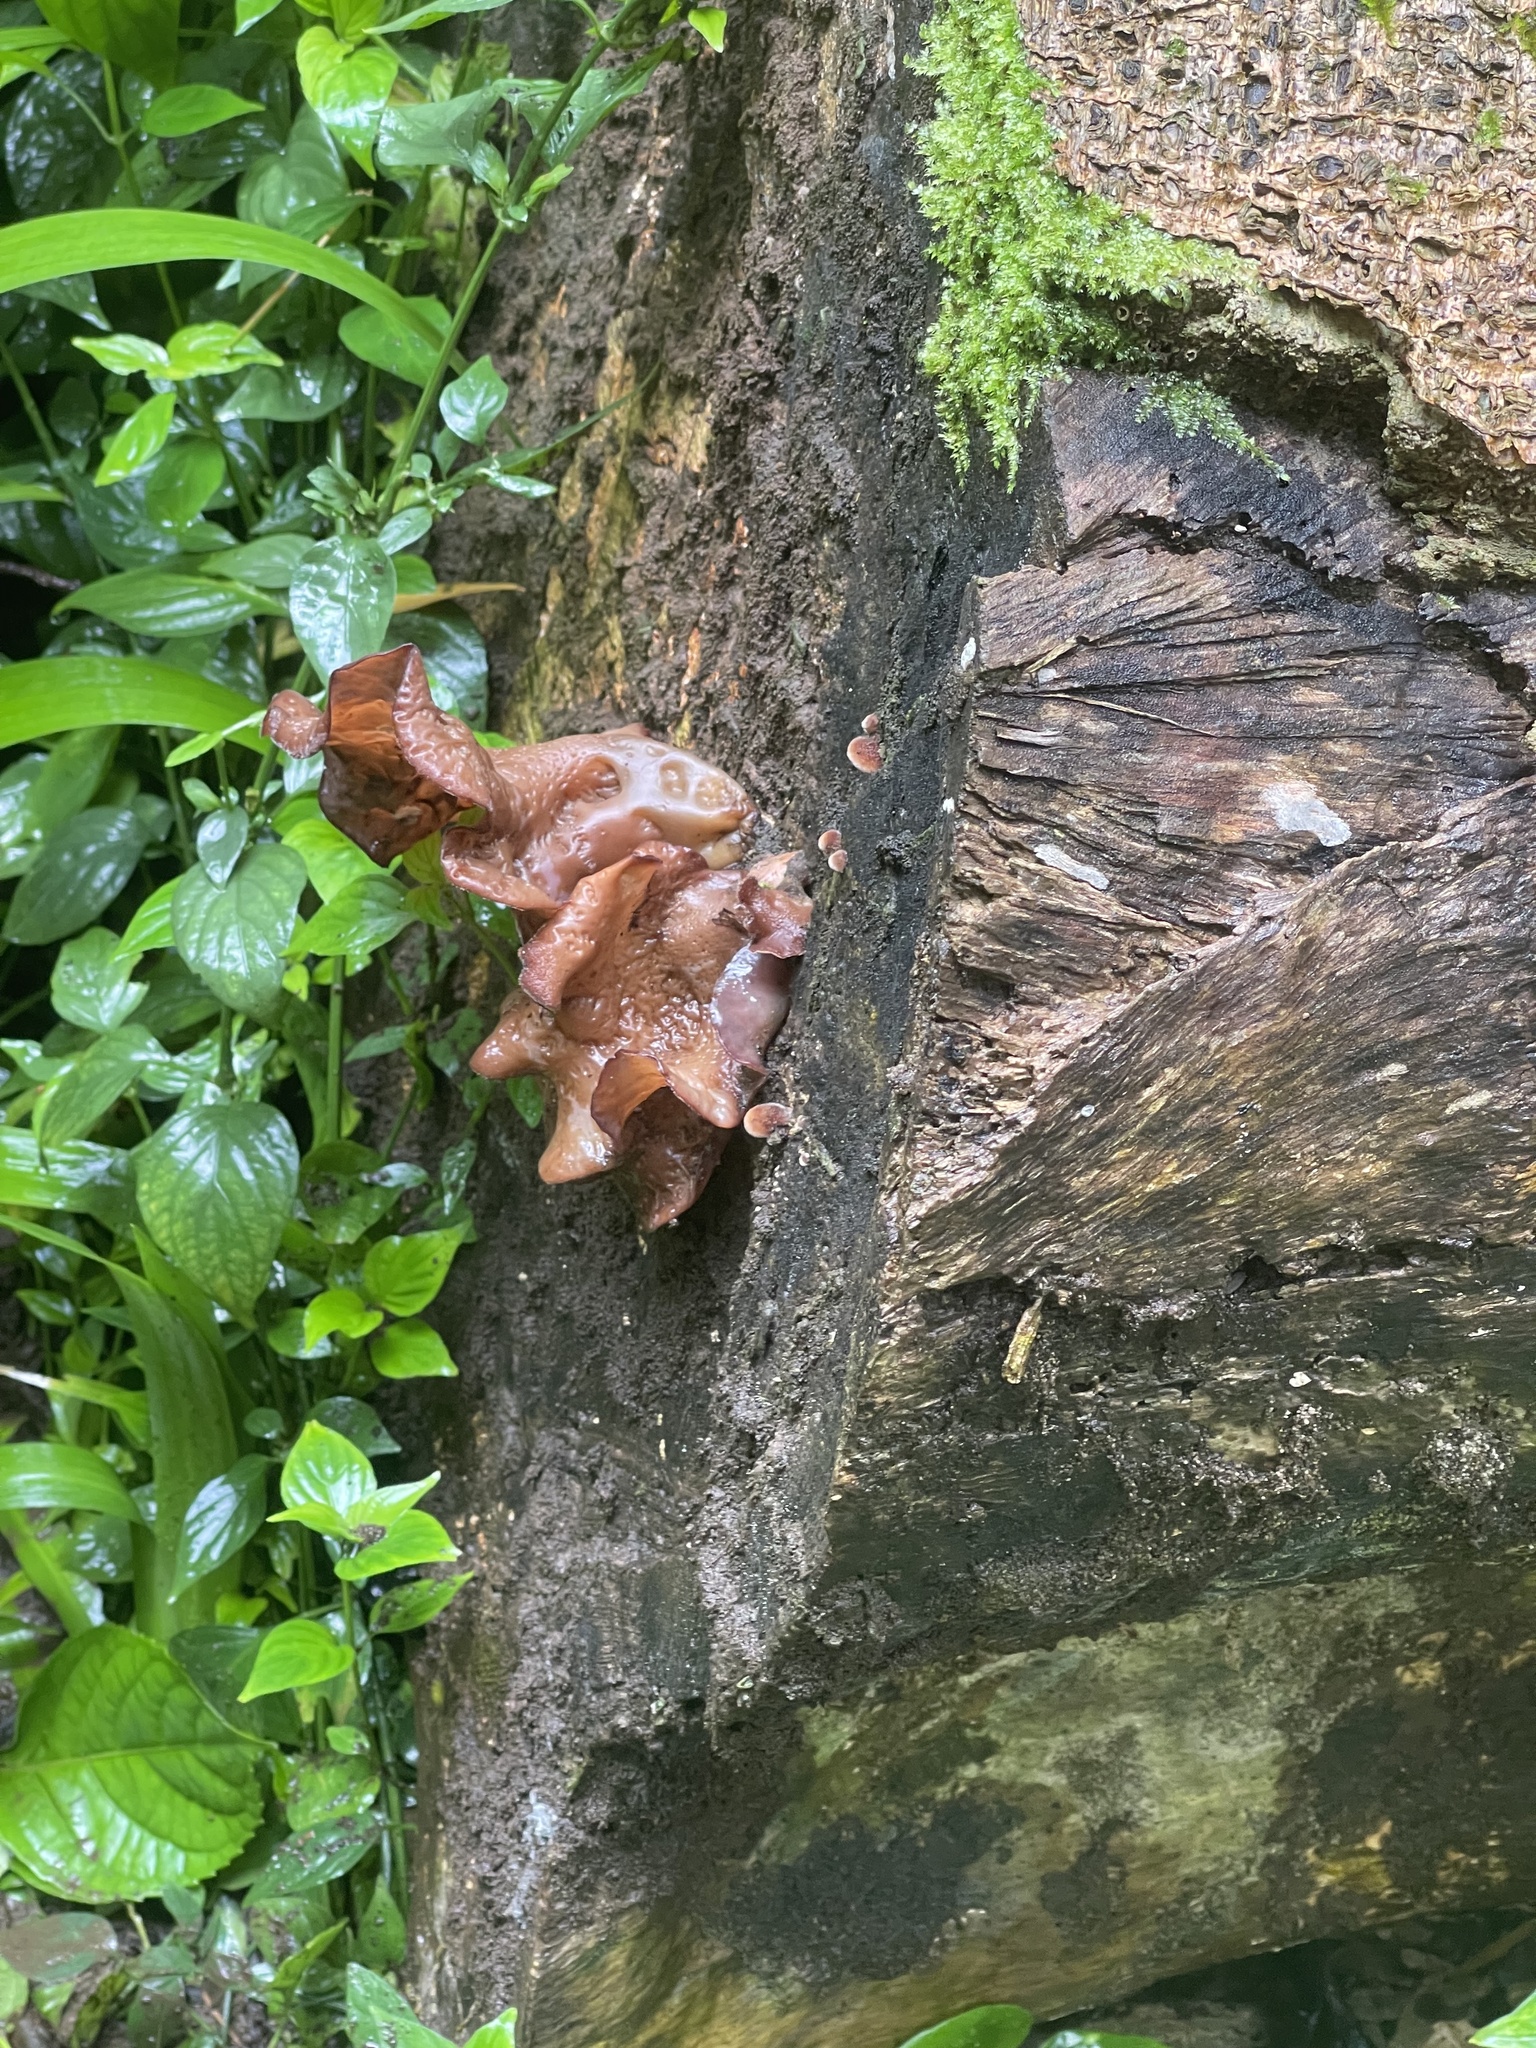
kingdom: Fungi
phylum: Basidiomycota
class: Agaricomycetes
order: Auriculariales
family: Auriculariaceae
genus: Auricularia
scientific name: Auricularia cornea
